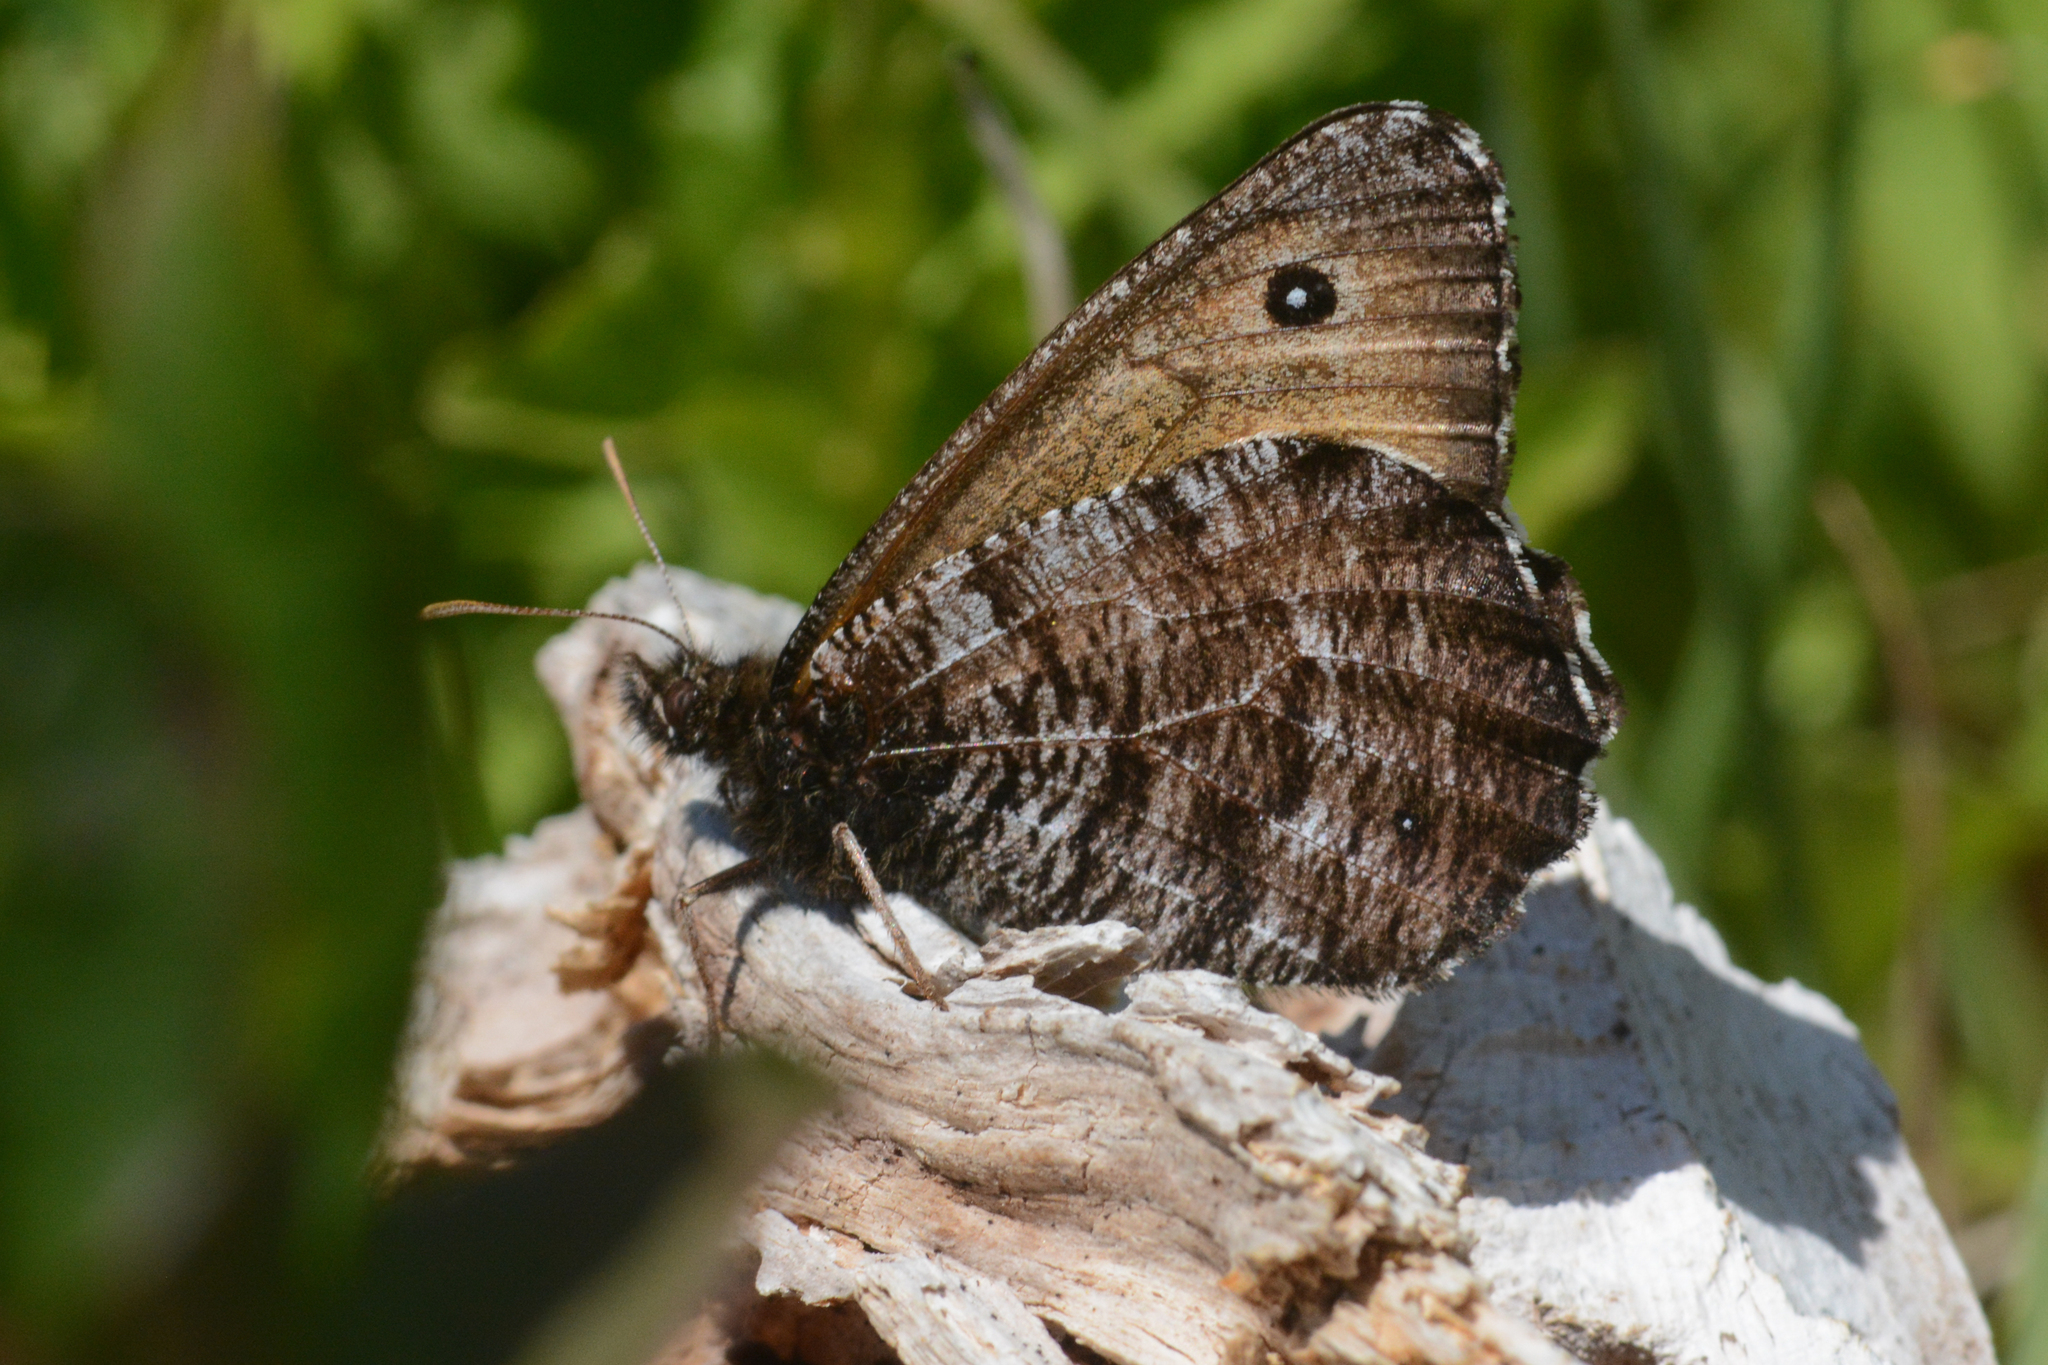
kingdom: Animalia
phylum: Arthropoda
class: Insecta
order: Lepidoptera
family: Nymphalidae
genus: Oeneis
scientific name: Oeneis nevadensis
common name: Great arctic
